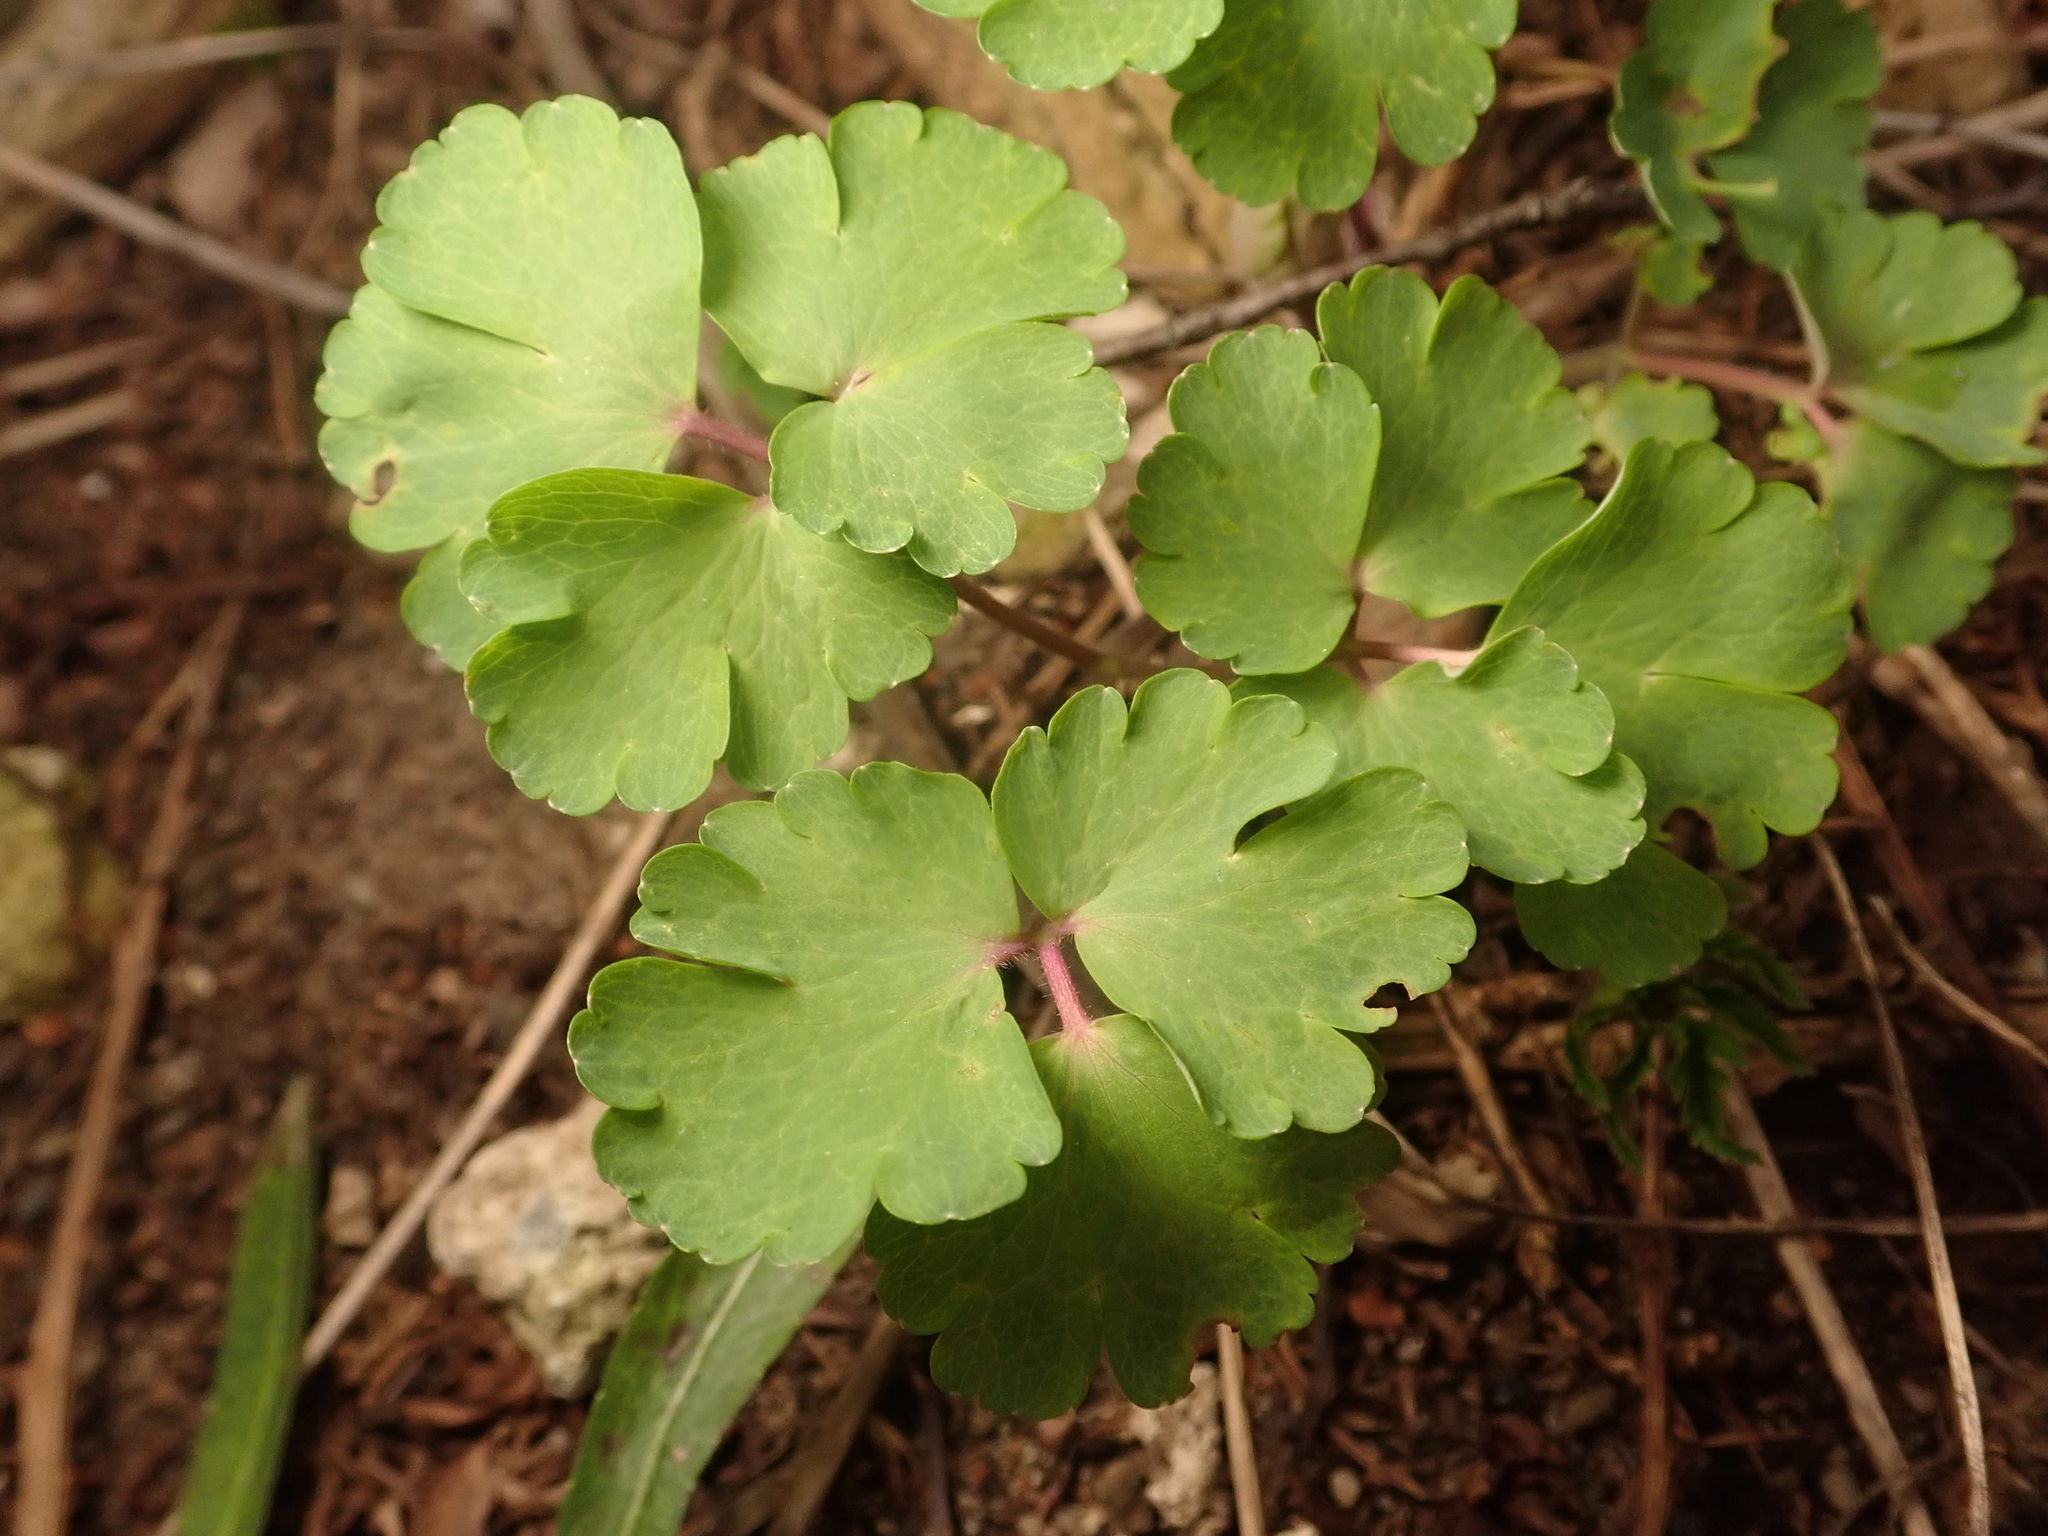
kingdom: Plantae
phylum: Tracheophyta
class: Magnoliopsida
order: Ranunculales
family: Ranunculaceae
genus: Aquilegia
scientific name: Aquilegia vulgaris
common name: Columbine
